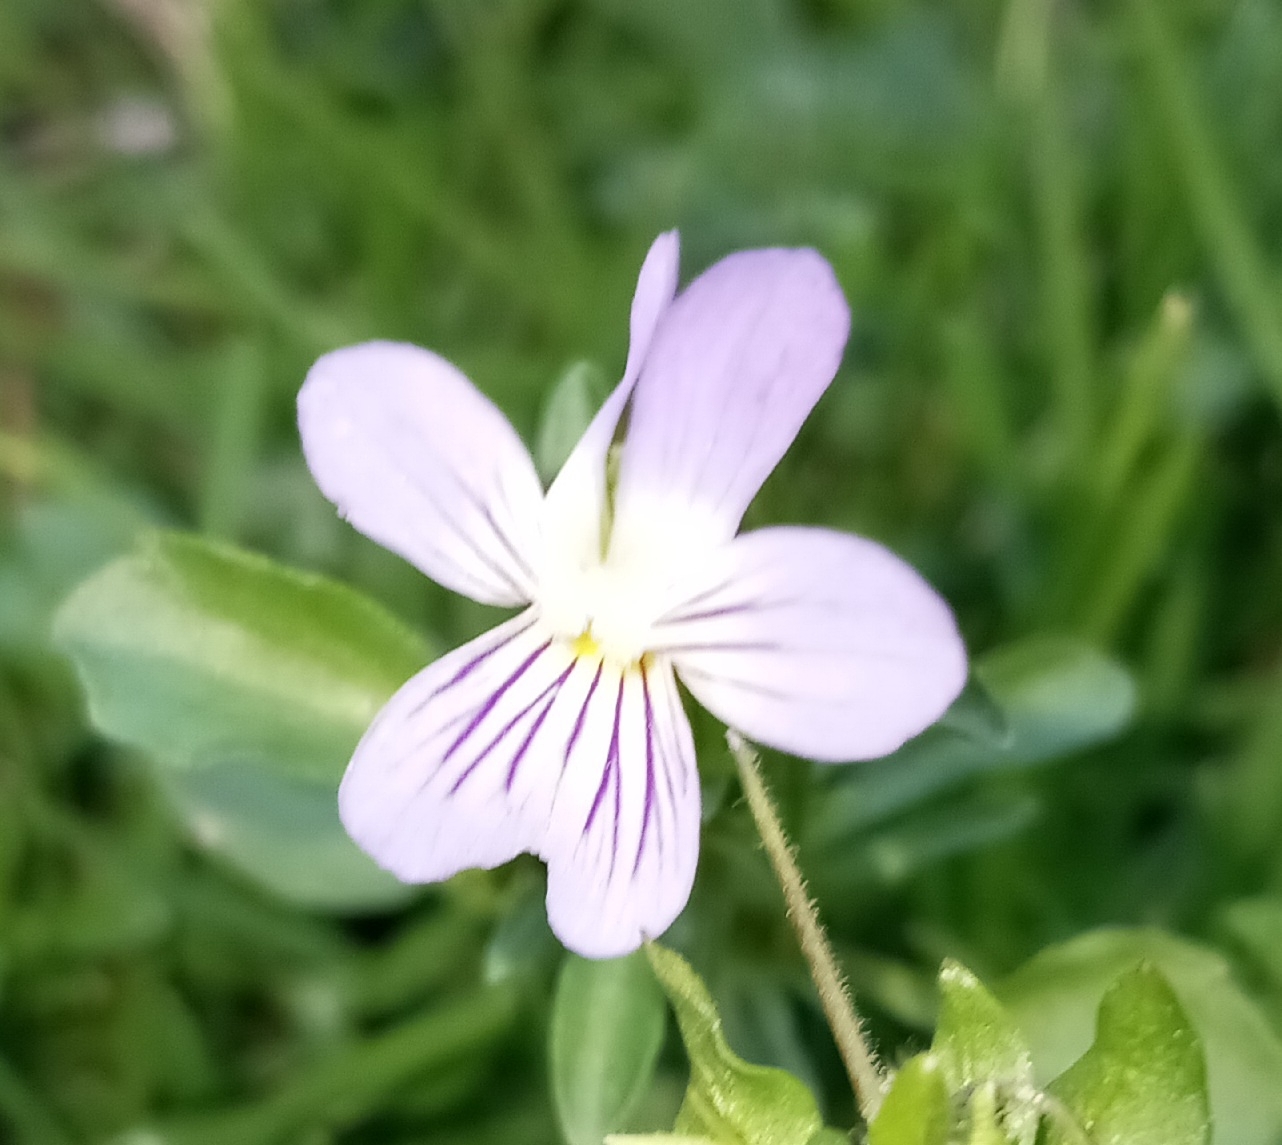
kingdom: Plantae
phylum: Tracheophyta
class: Magnoliopsida
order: Malpighiales
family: Violaceae
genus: Viola
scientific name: Viola rafinesquei
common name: American field pansy
